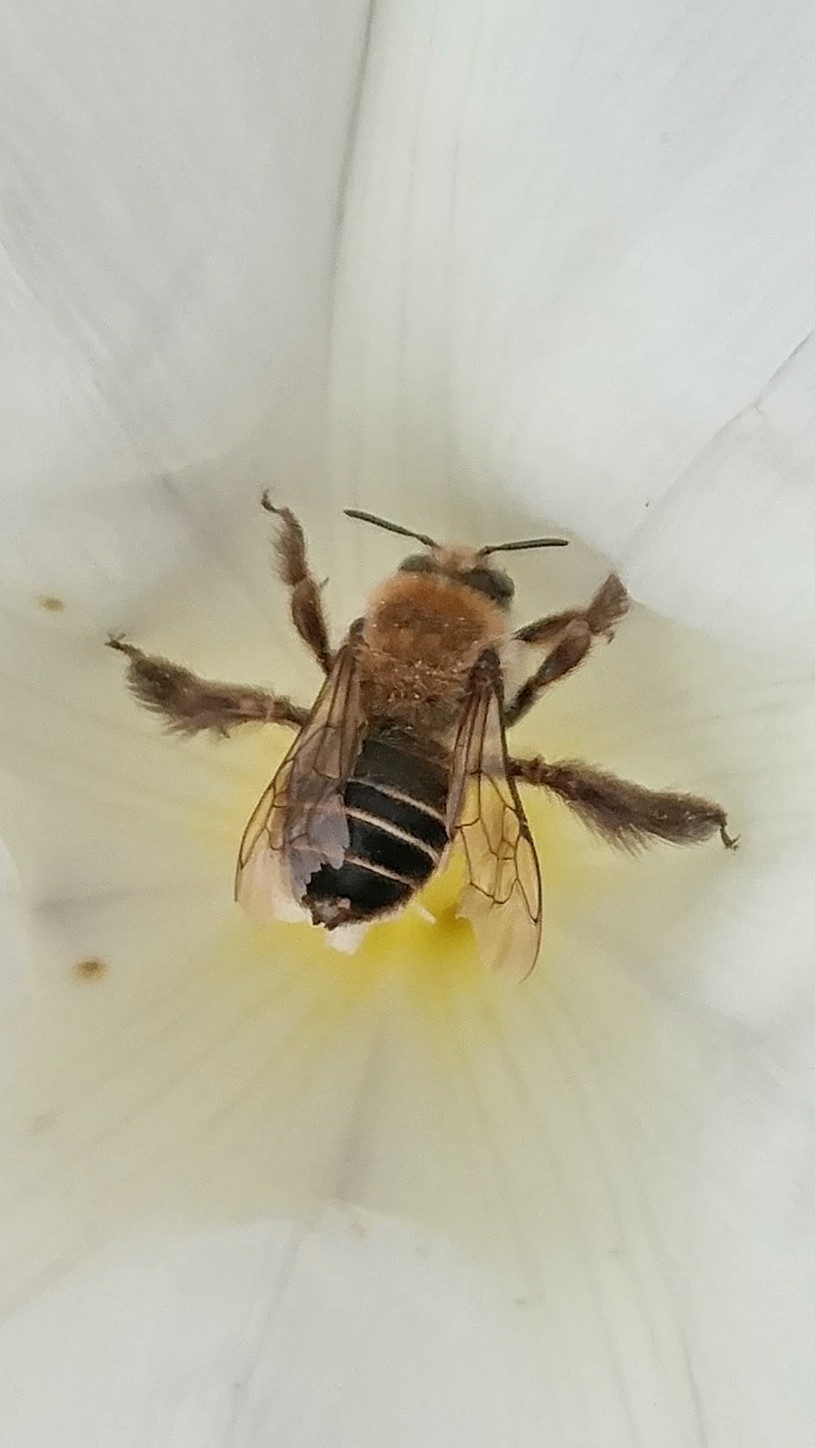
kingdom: Animalia
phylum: Arthropoda
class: Insecta
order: Hymenoptera
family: Apidae
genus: Diadasia
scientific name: Diadasia bituberculata
